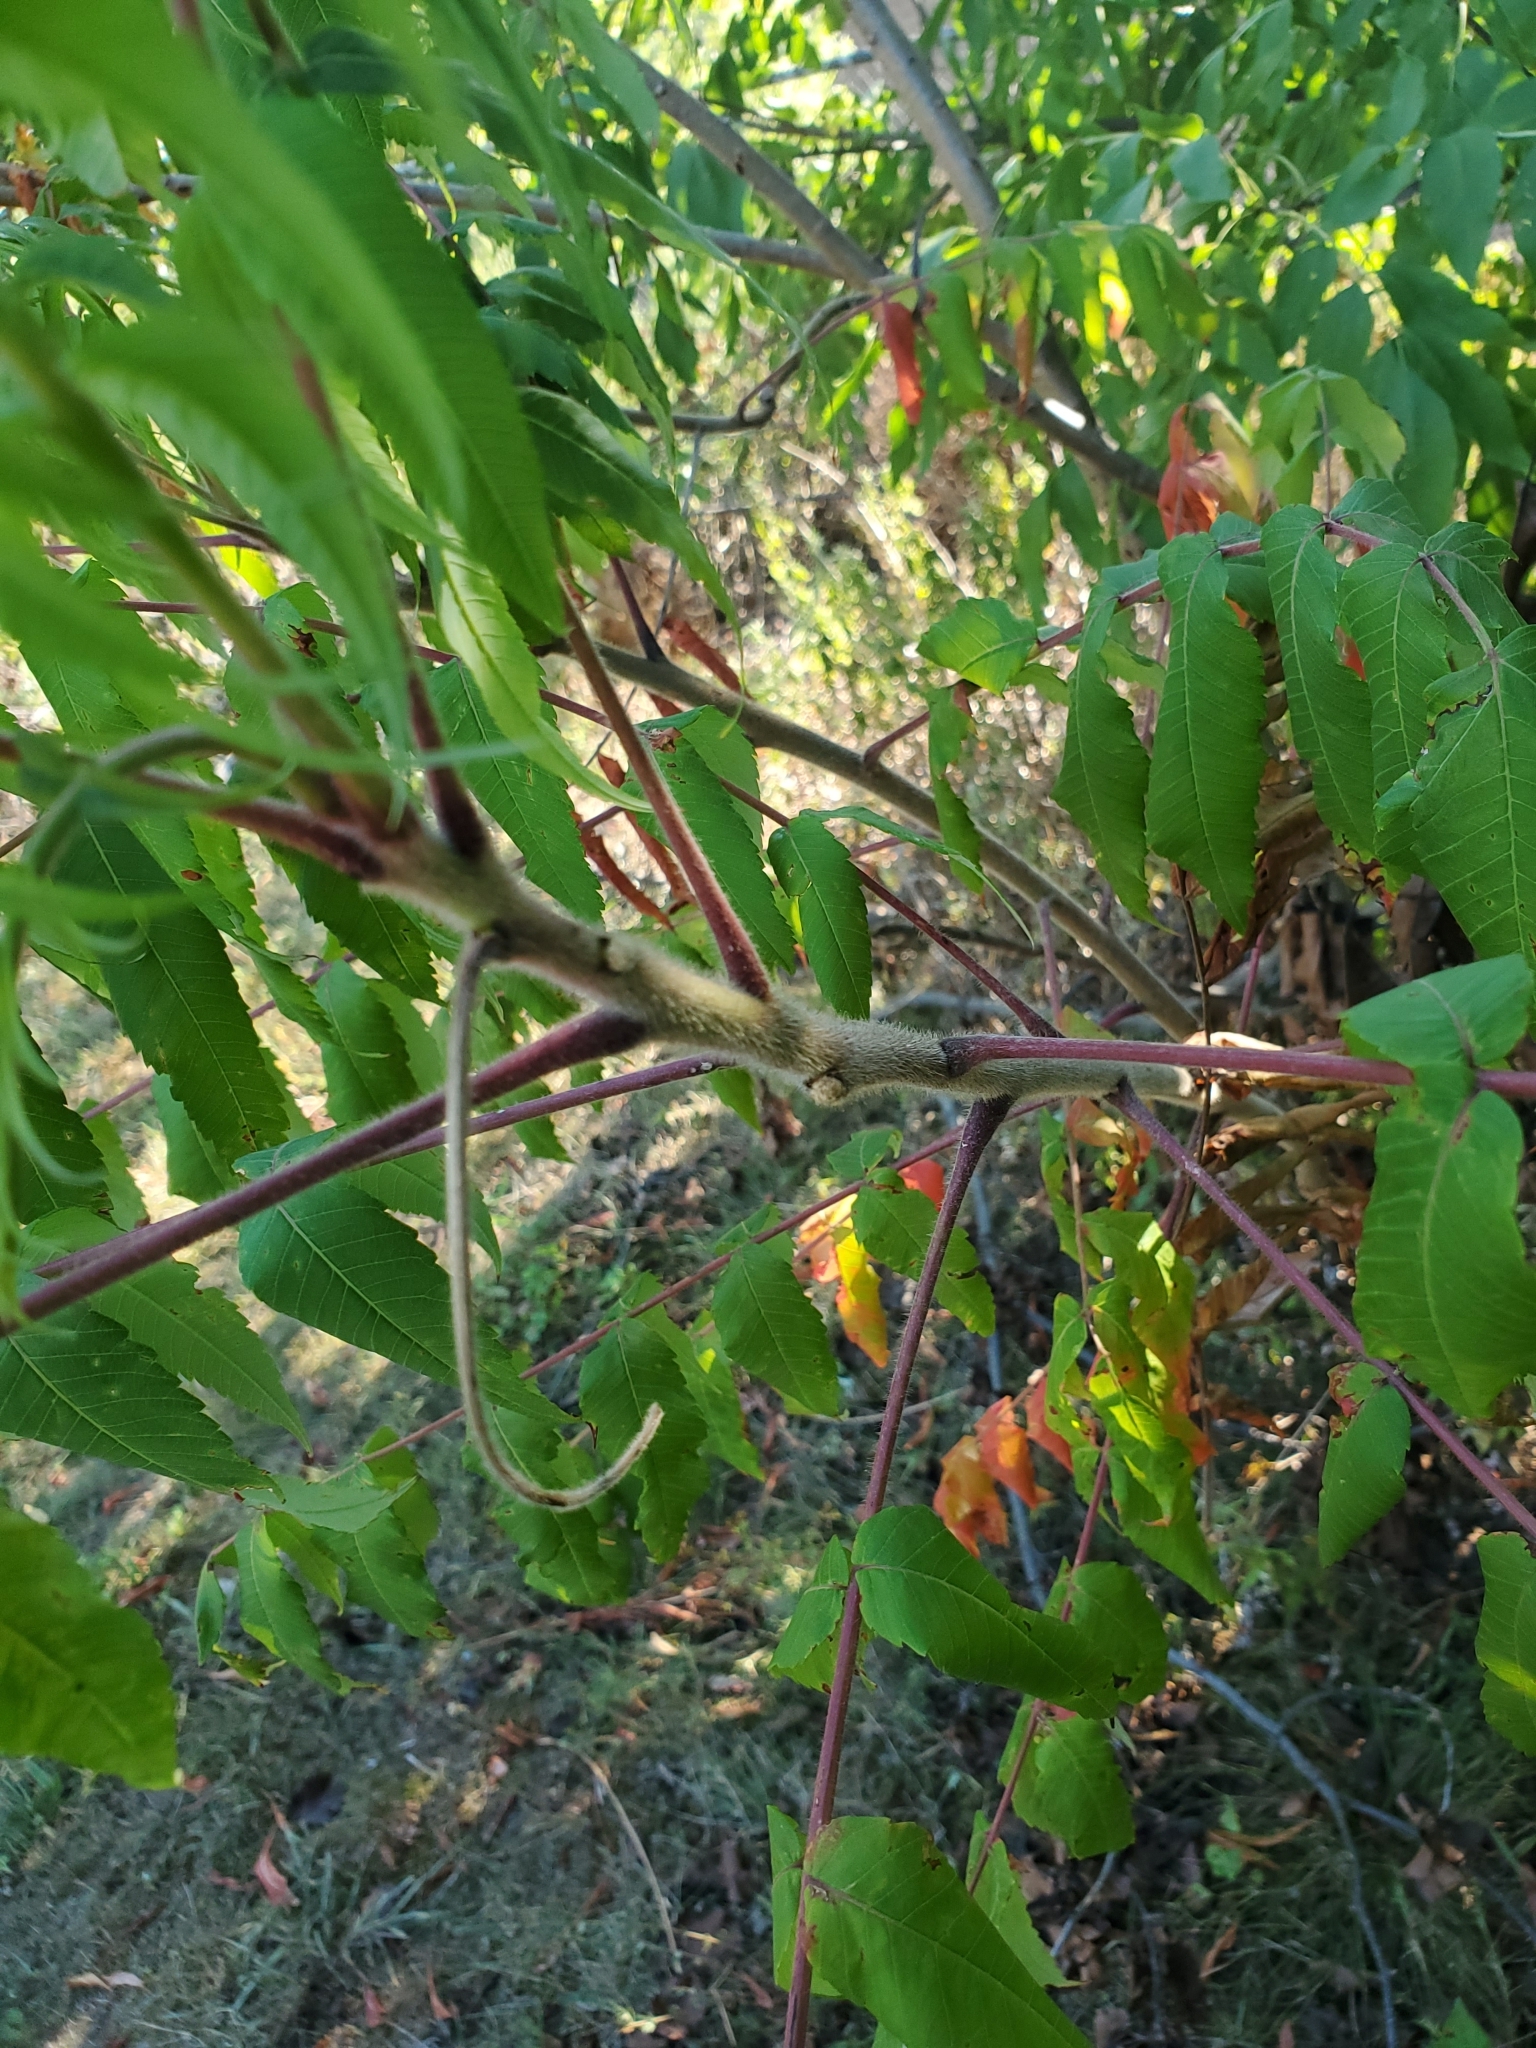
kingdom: Plantae
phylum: Tracheophyta
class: Magnoliopsida
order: Sapindales
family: Anacardiaceae
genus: Rhus
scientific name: Rhus typhina
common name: Staghorn sumac
